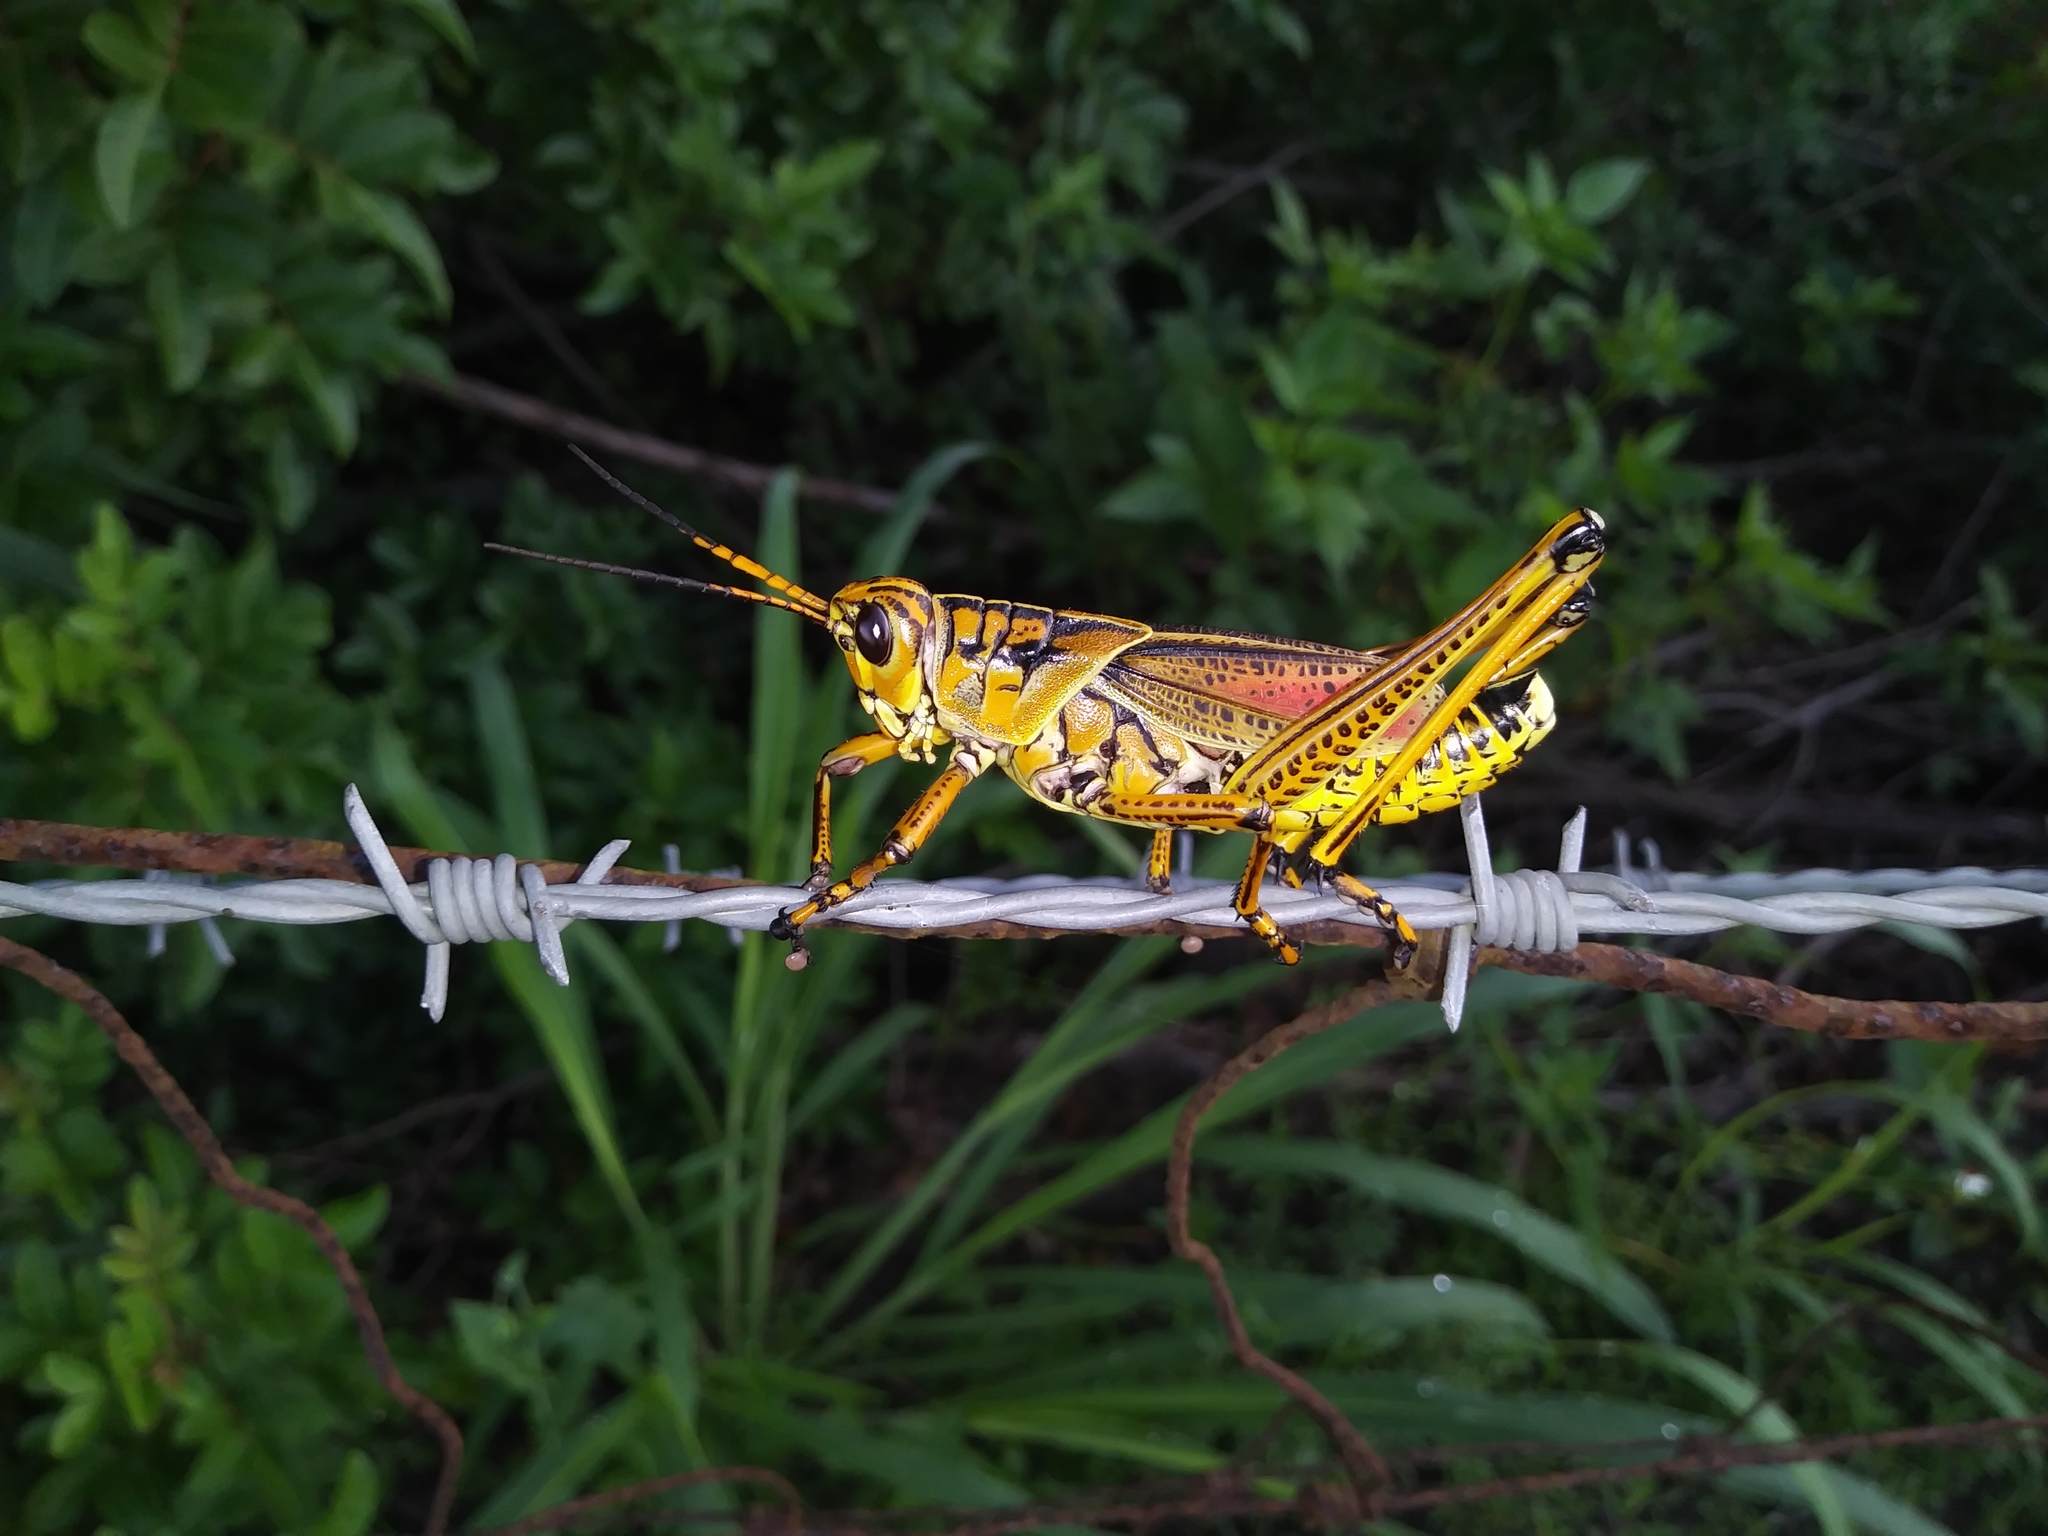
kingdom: Animalia
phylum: Arthropoda
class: Insecta
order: Orthoptera
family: Romaleidae
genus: Romalea
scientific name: Romalea microptera
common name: Eastern lubber grasshopper
